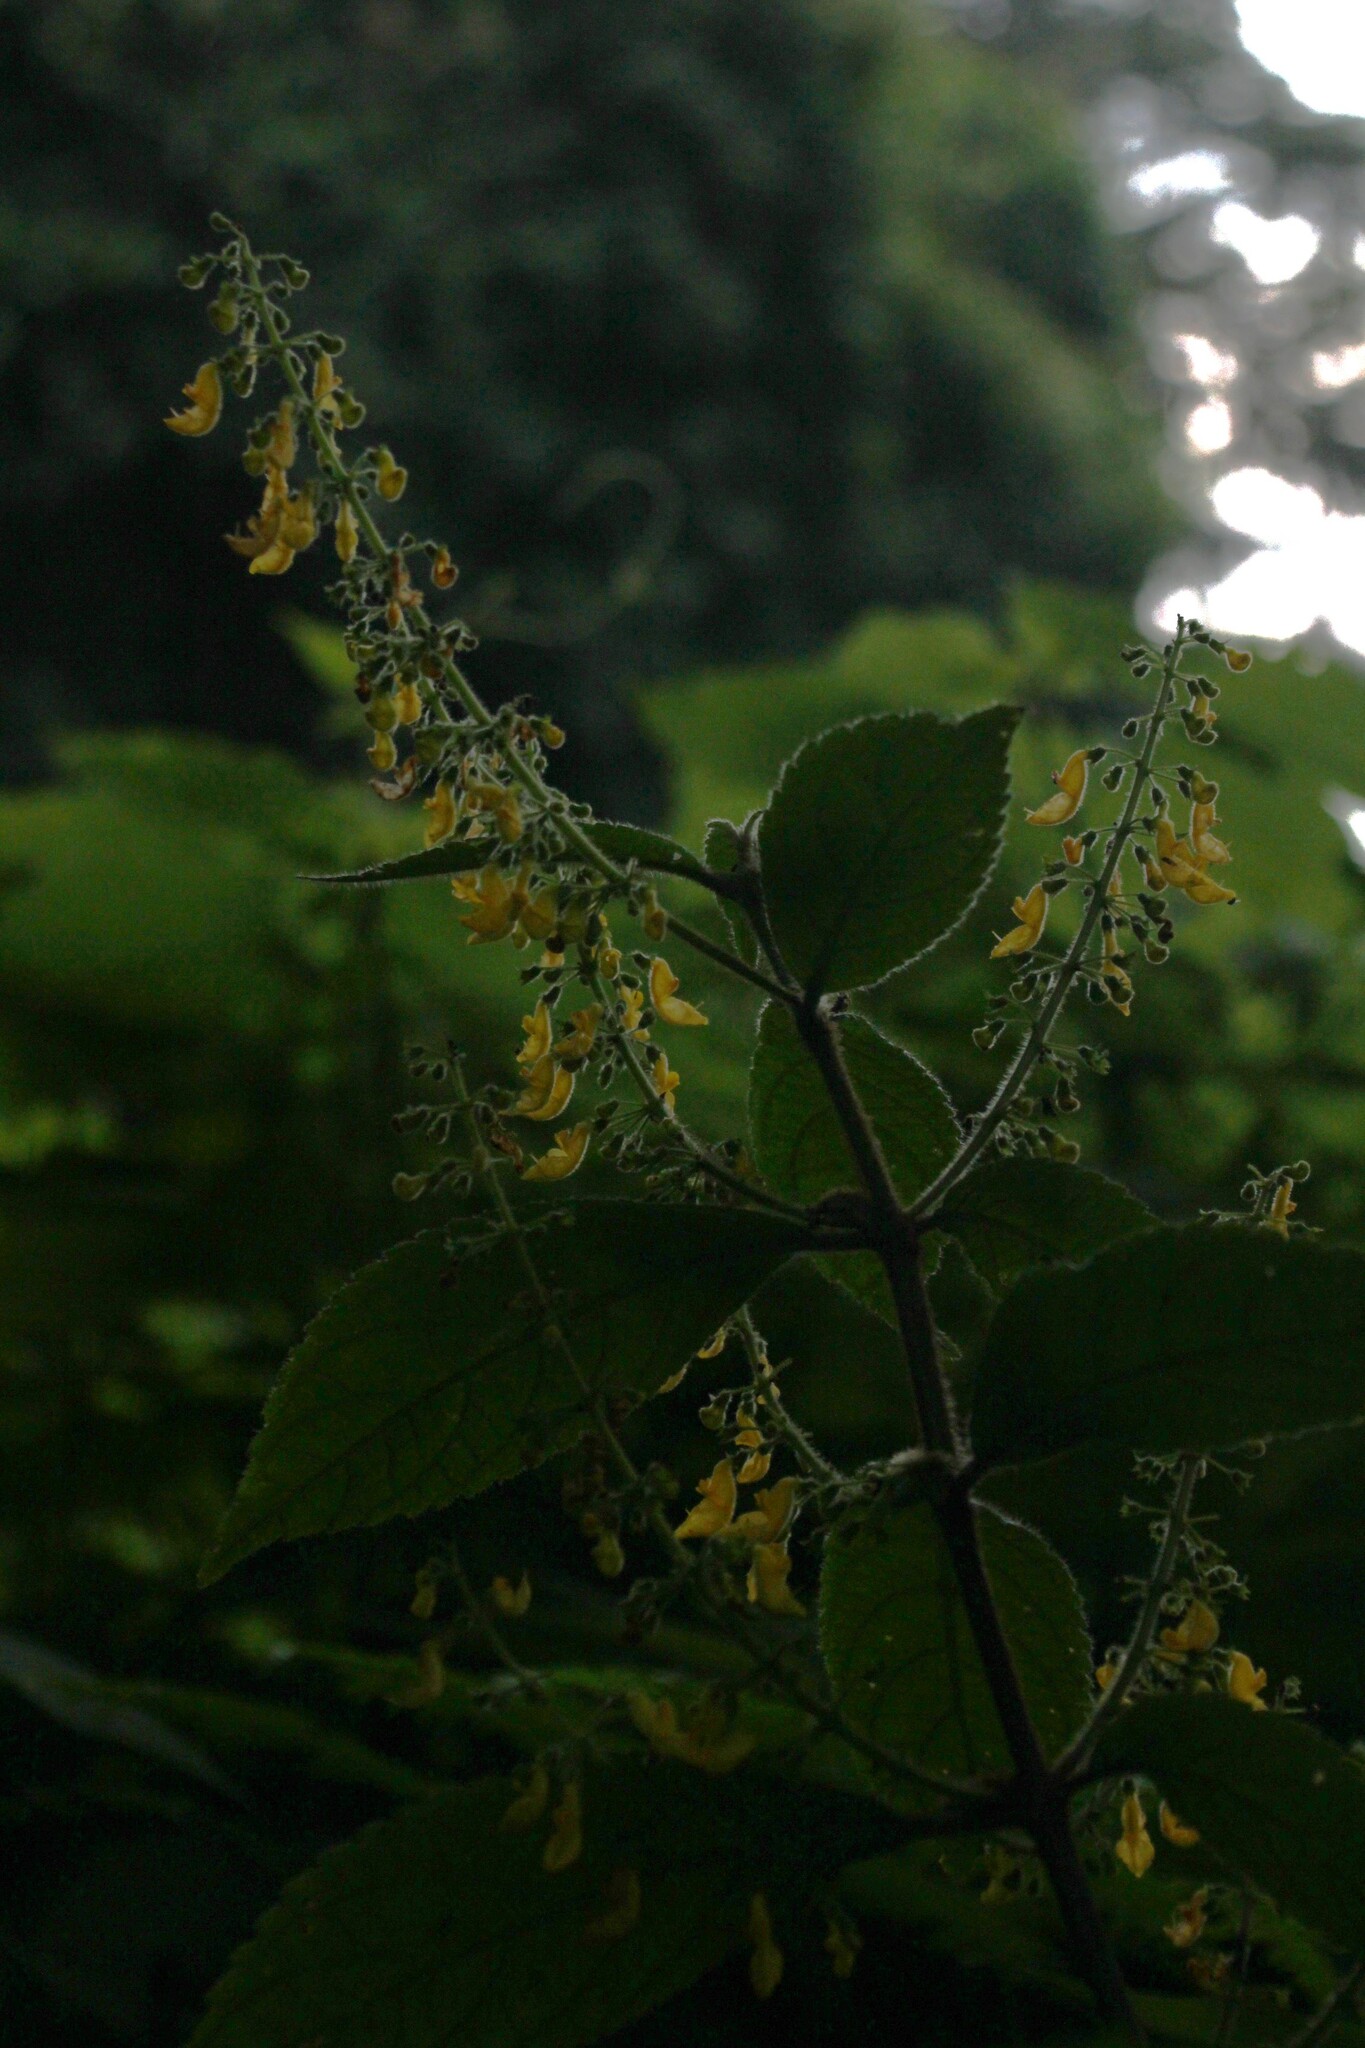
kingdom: Plantae
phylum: Tracheophyta
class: Magnoliopsida
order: Lamiales
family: Lamiaceae
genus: Coleus
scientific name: Coleus melleri
